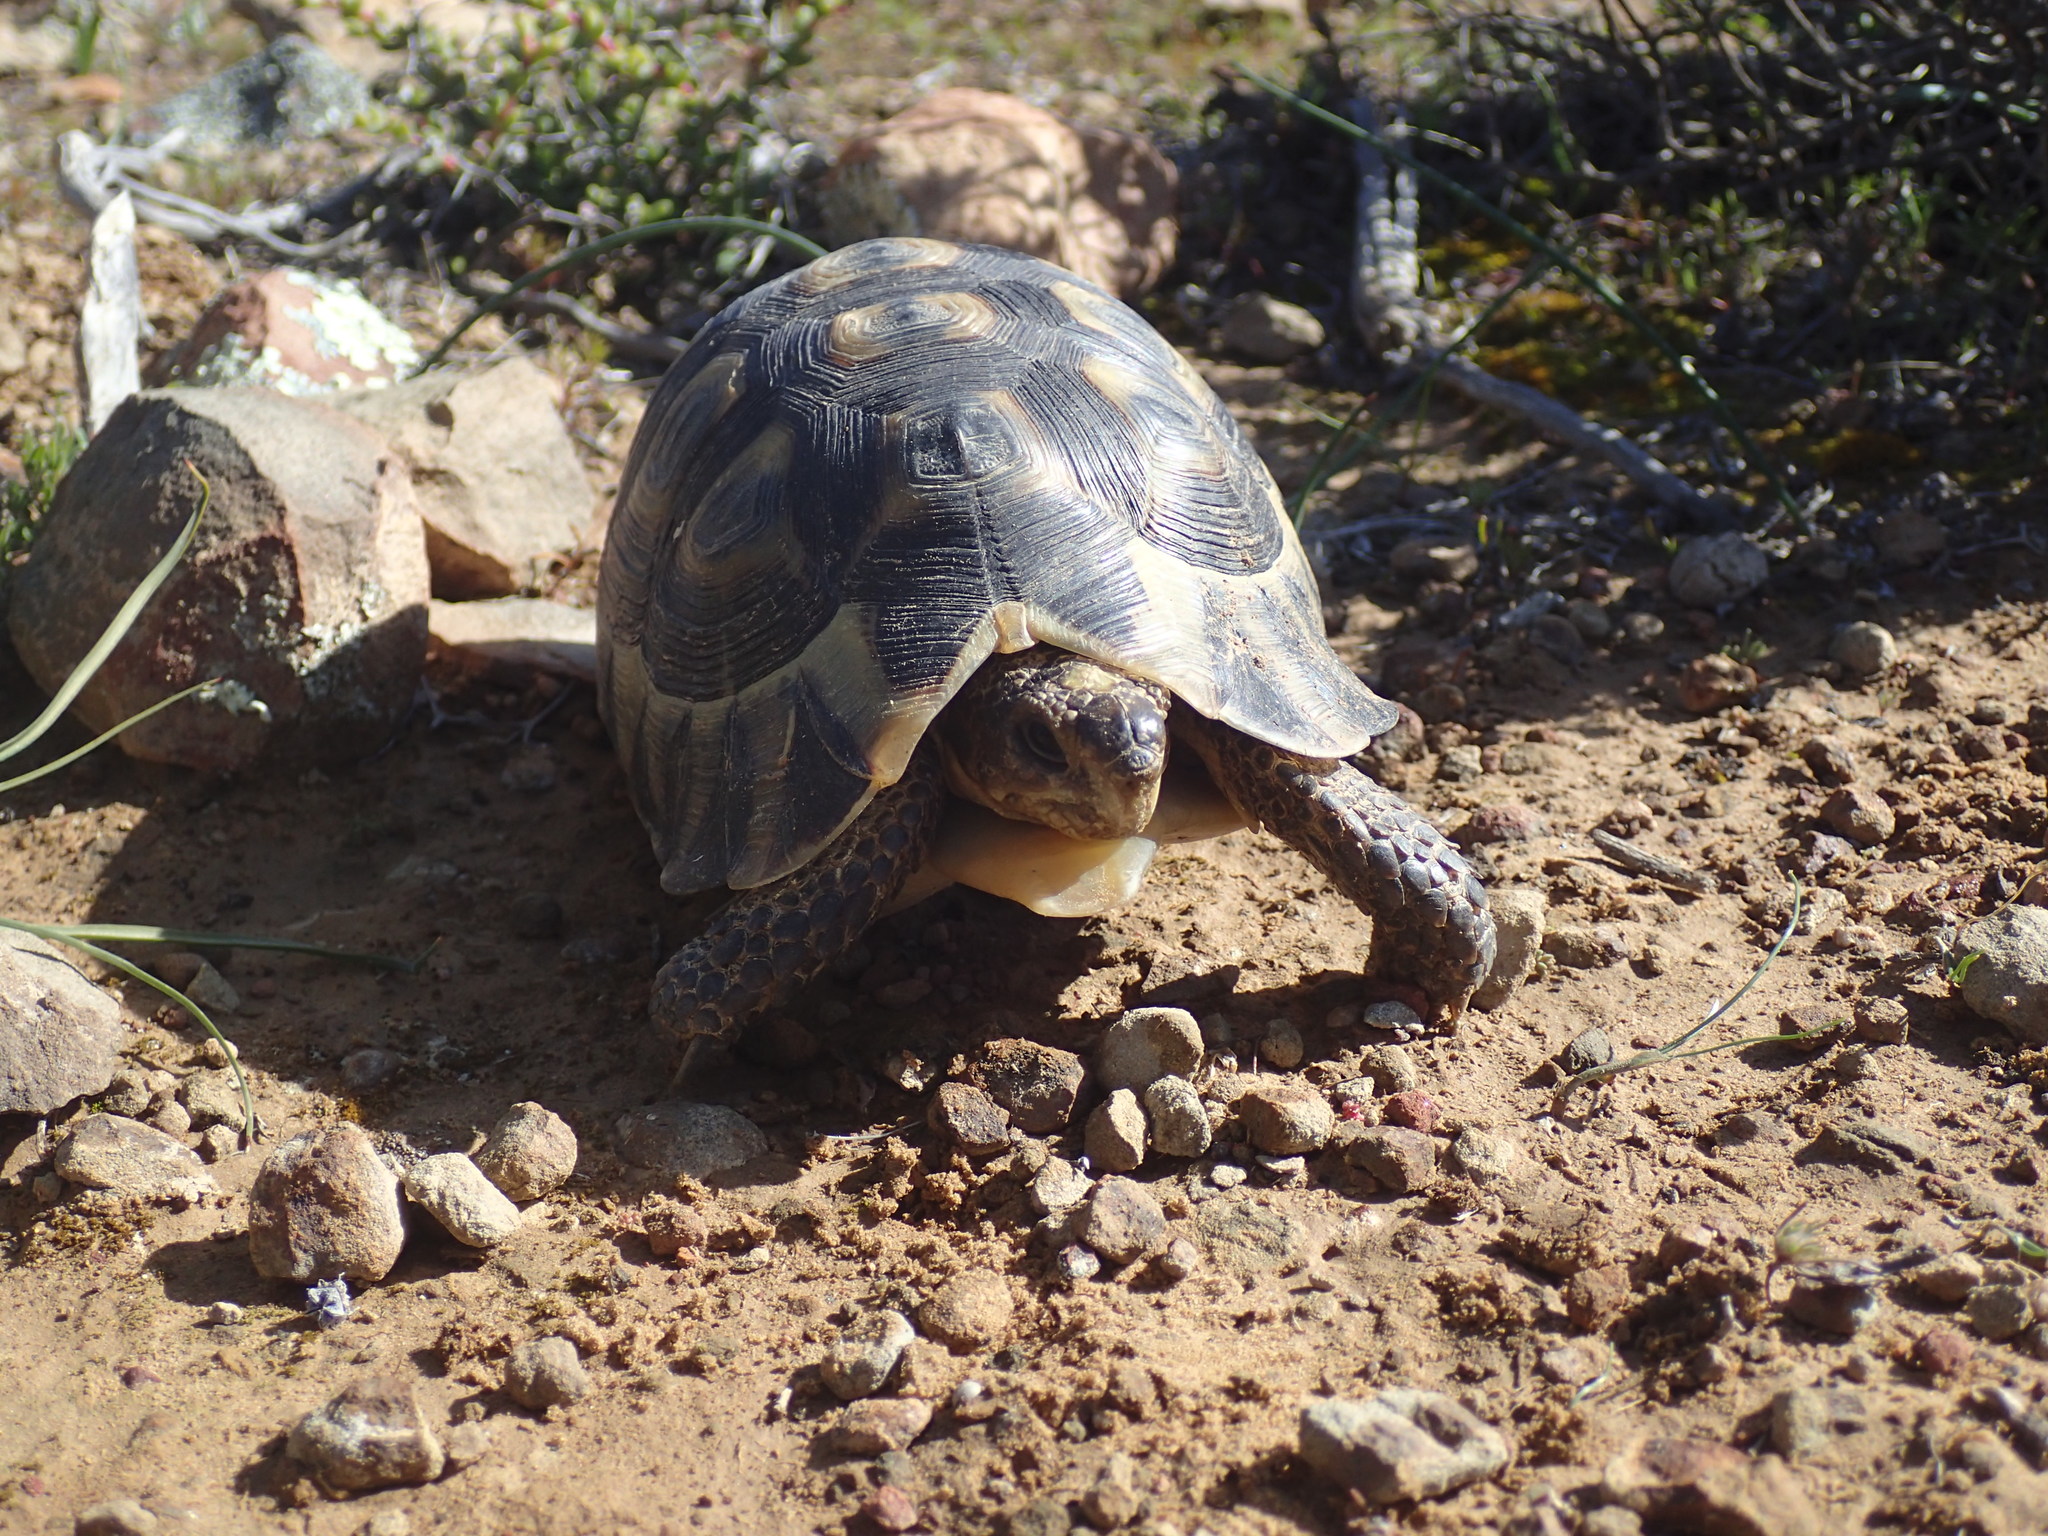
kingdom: Animalia
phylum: Chordata
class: Testudines
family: Testudinidae
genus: Chersina
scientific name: Chersina angulata
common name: South african bowsprit tortoise
